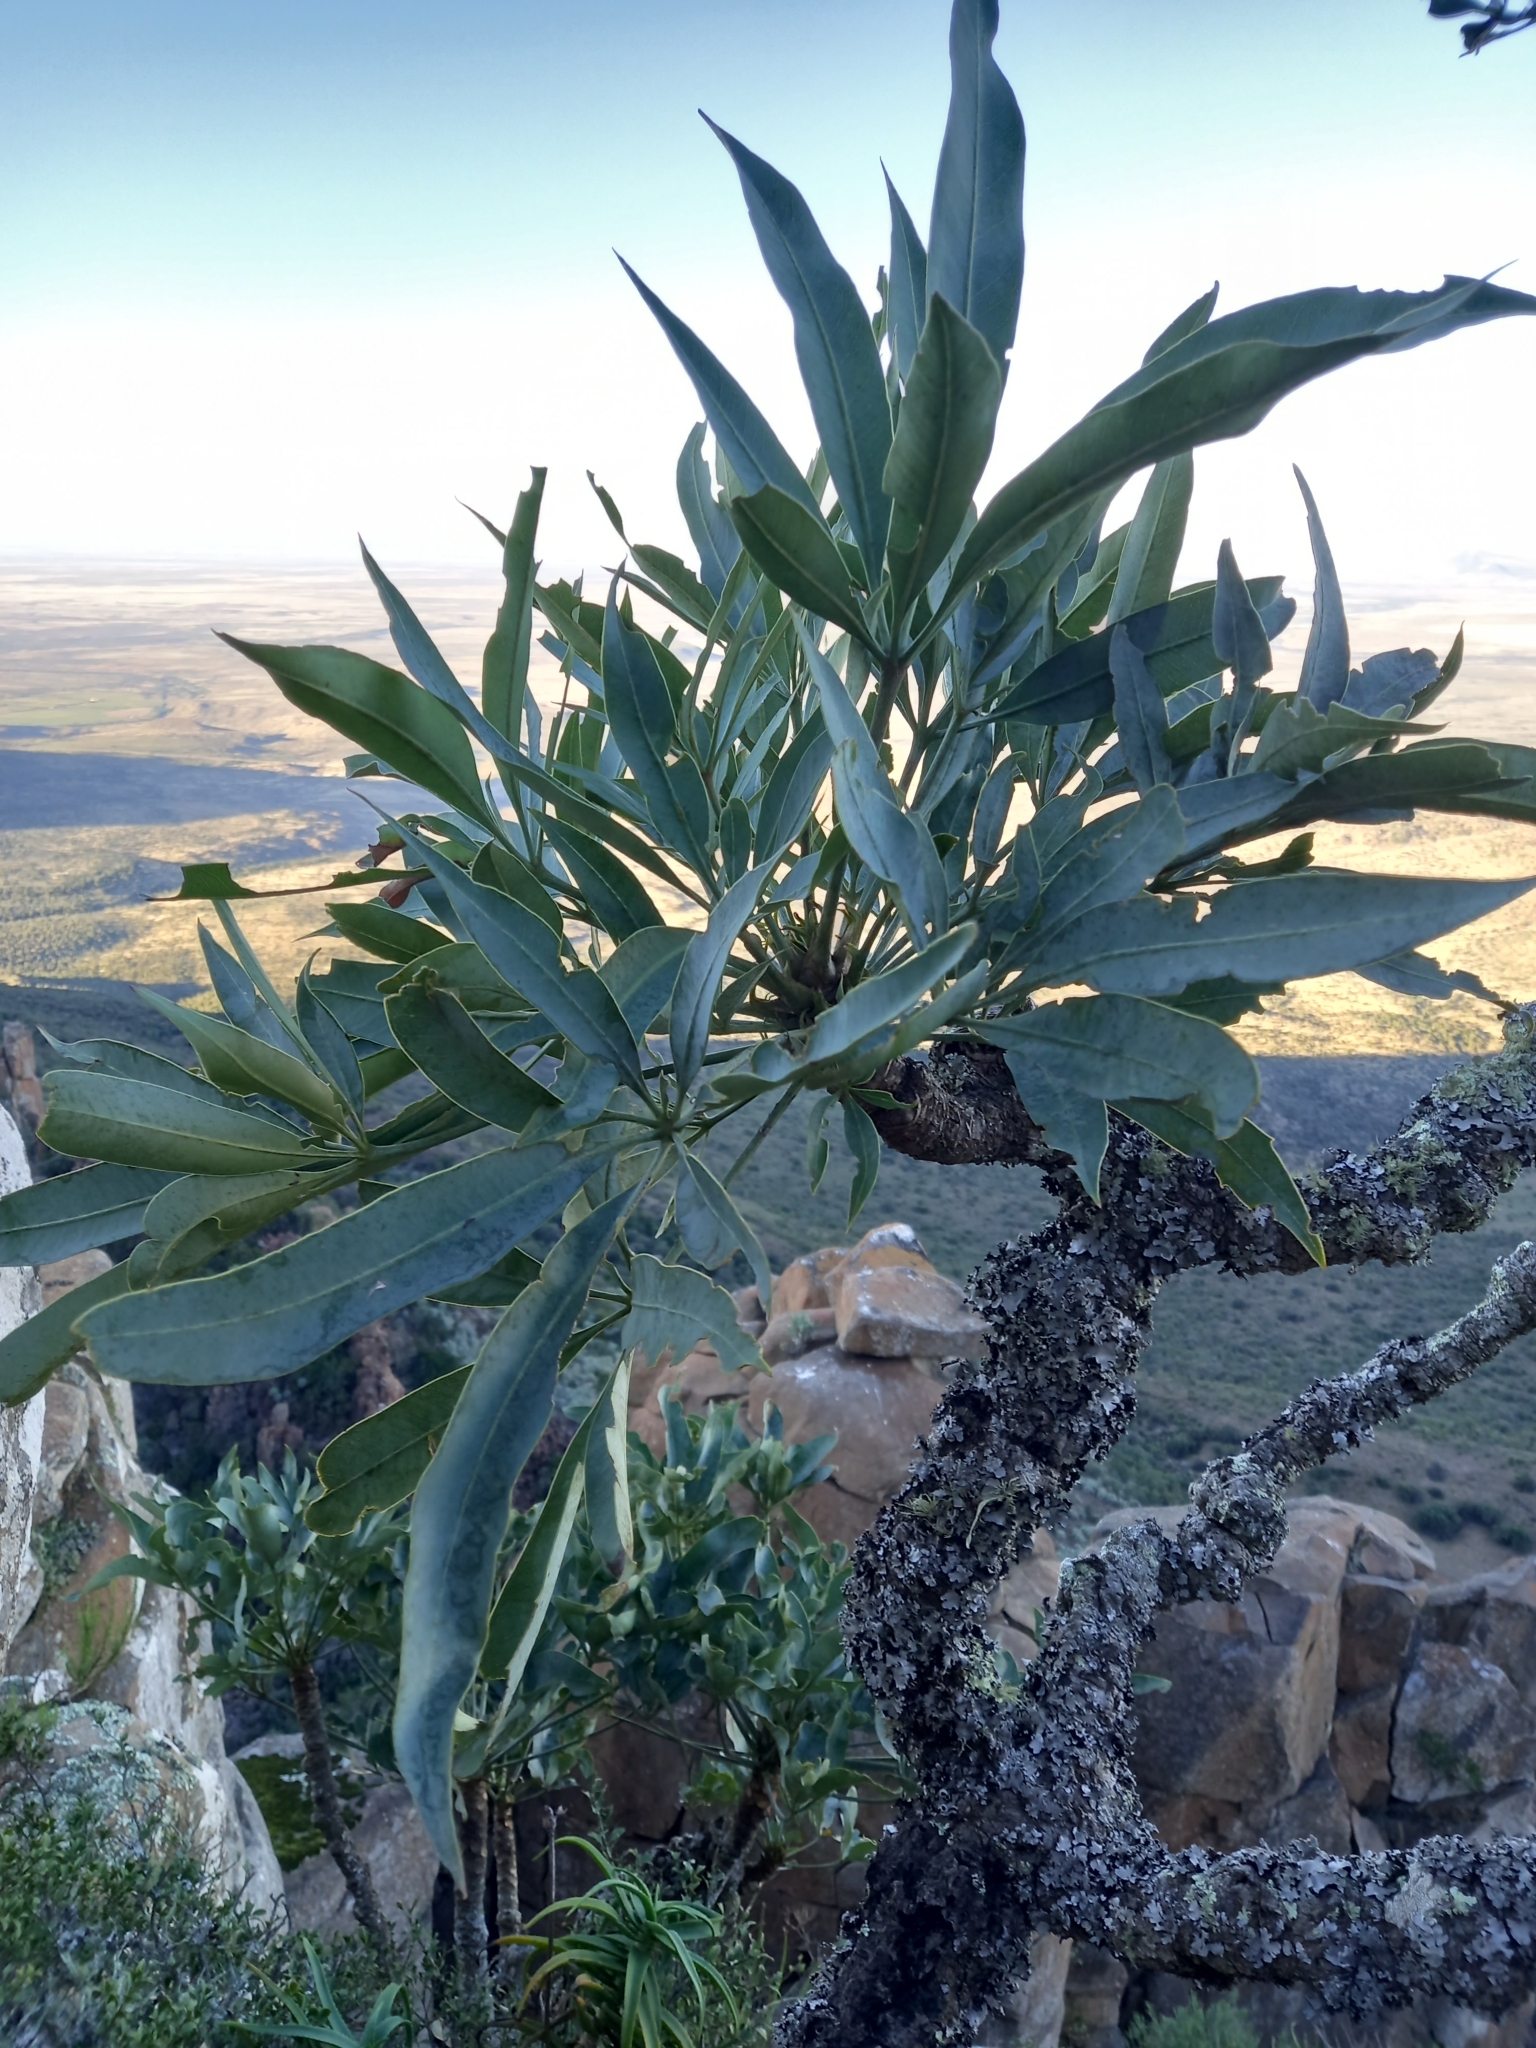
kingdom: Plantae
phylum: Tracheophyta
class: Magnoliopsida
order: Apiales
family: Araliaceae
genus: Cussonia
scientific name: Cussonia paniculata
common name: Cabbagetree
